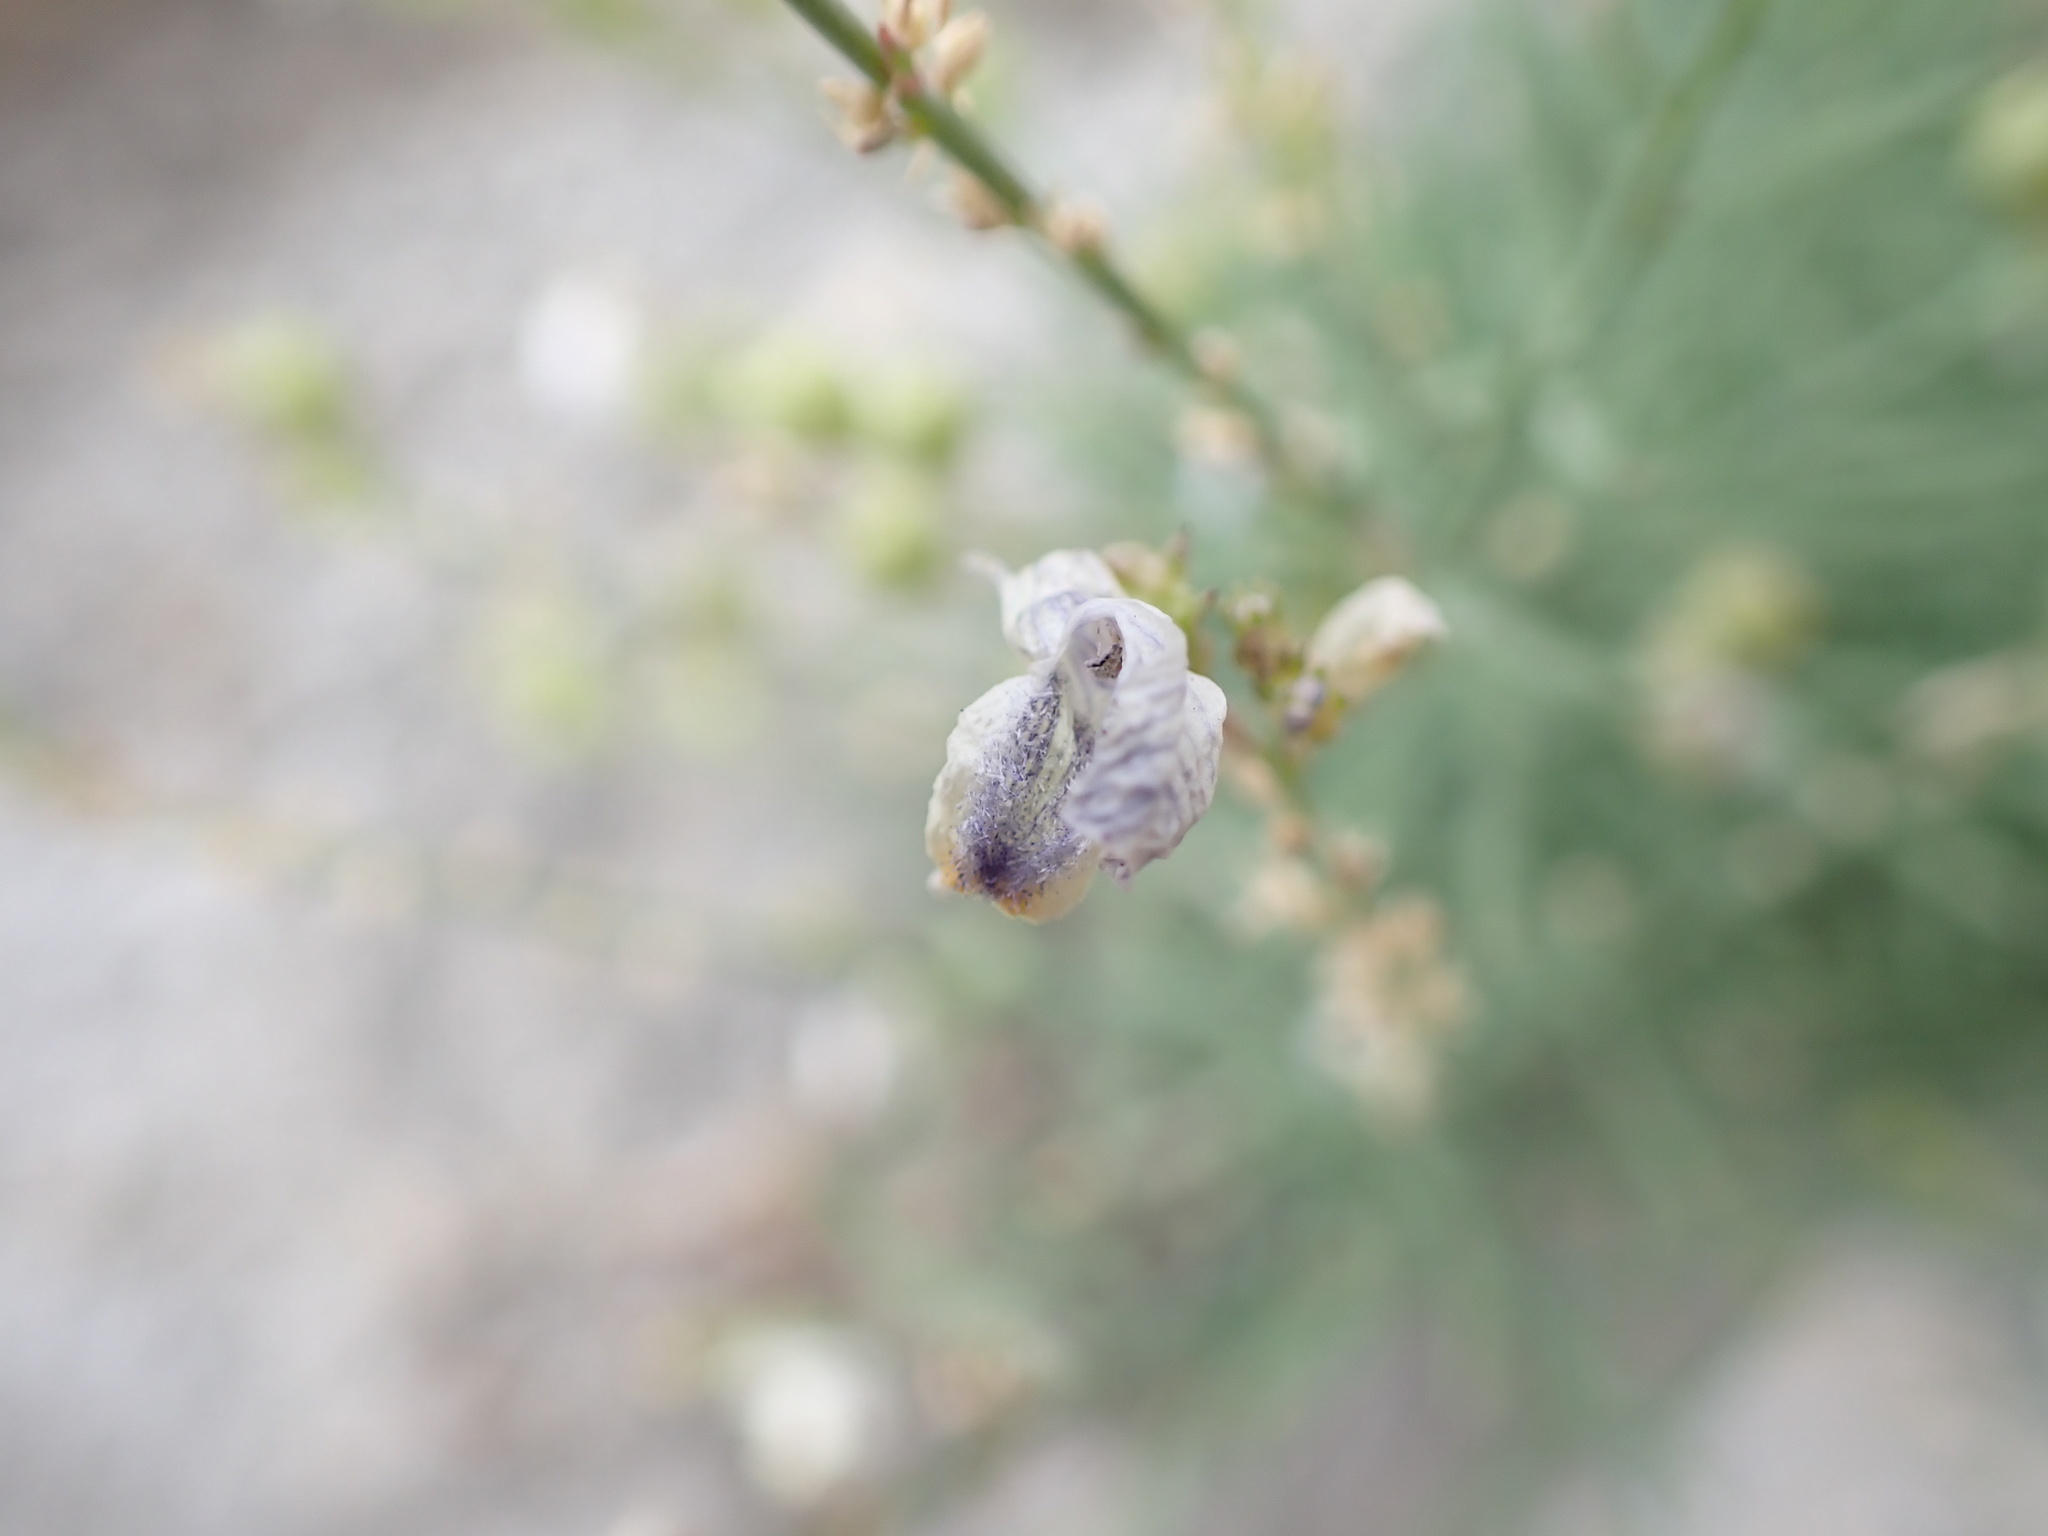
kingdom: Plantae
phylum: Tracheophyta
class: Magnoliopsida
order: Lamiales
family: Plantaginaceae
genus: Linaria
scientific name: Linaria repens
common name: Pale toadflax
